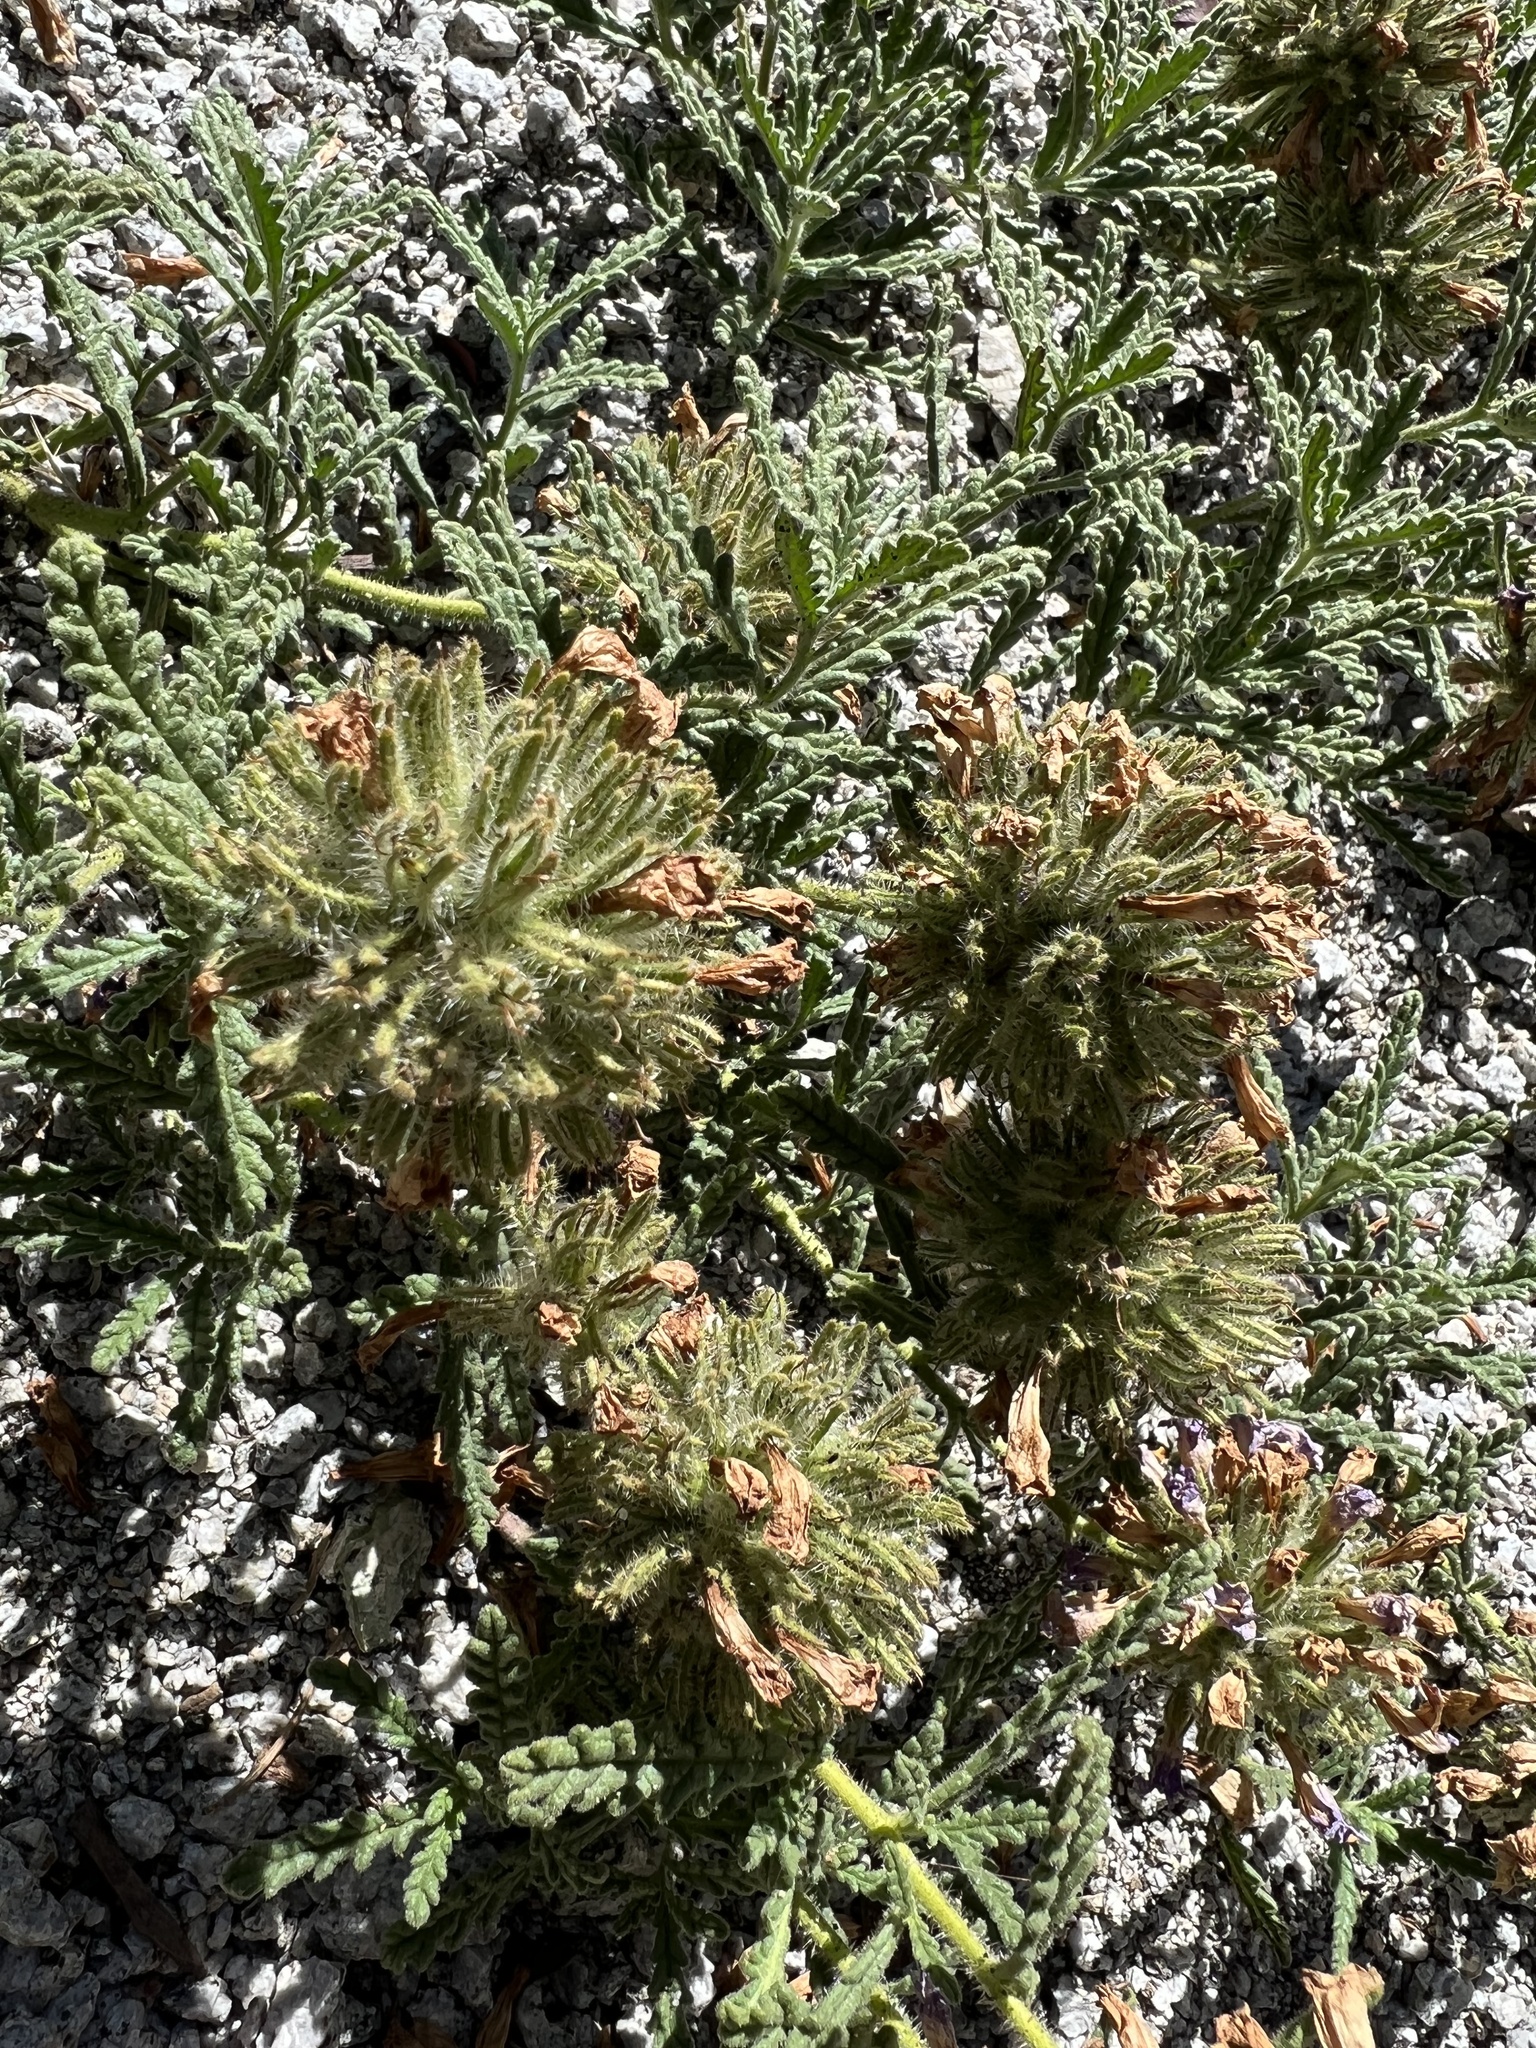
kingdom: Plantae
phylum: Tracheophyta
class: Magnoliopsida
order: Boraginales
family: Namaceae
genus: Nama
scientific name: Nama rothrockii
